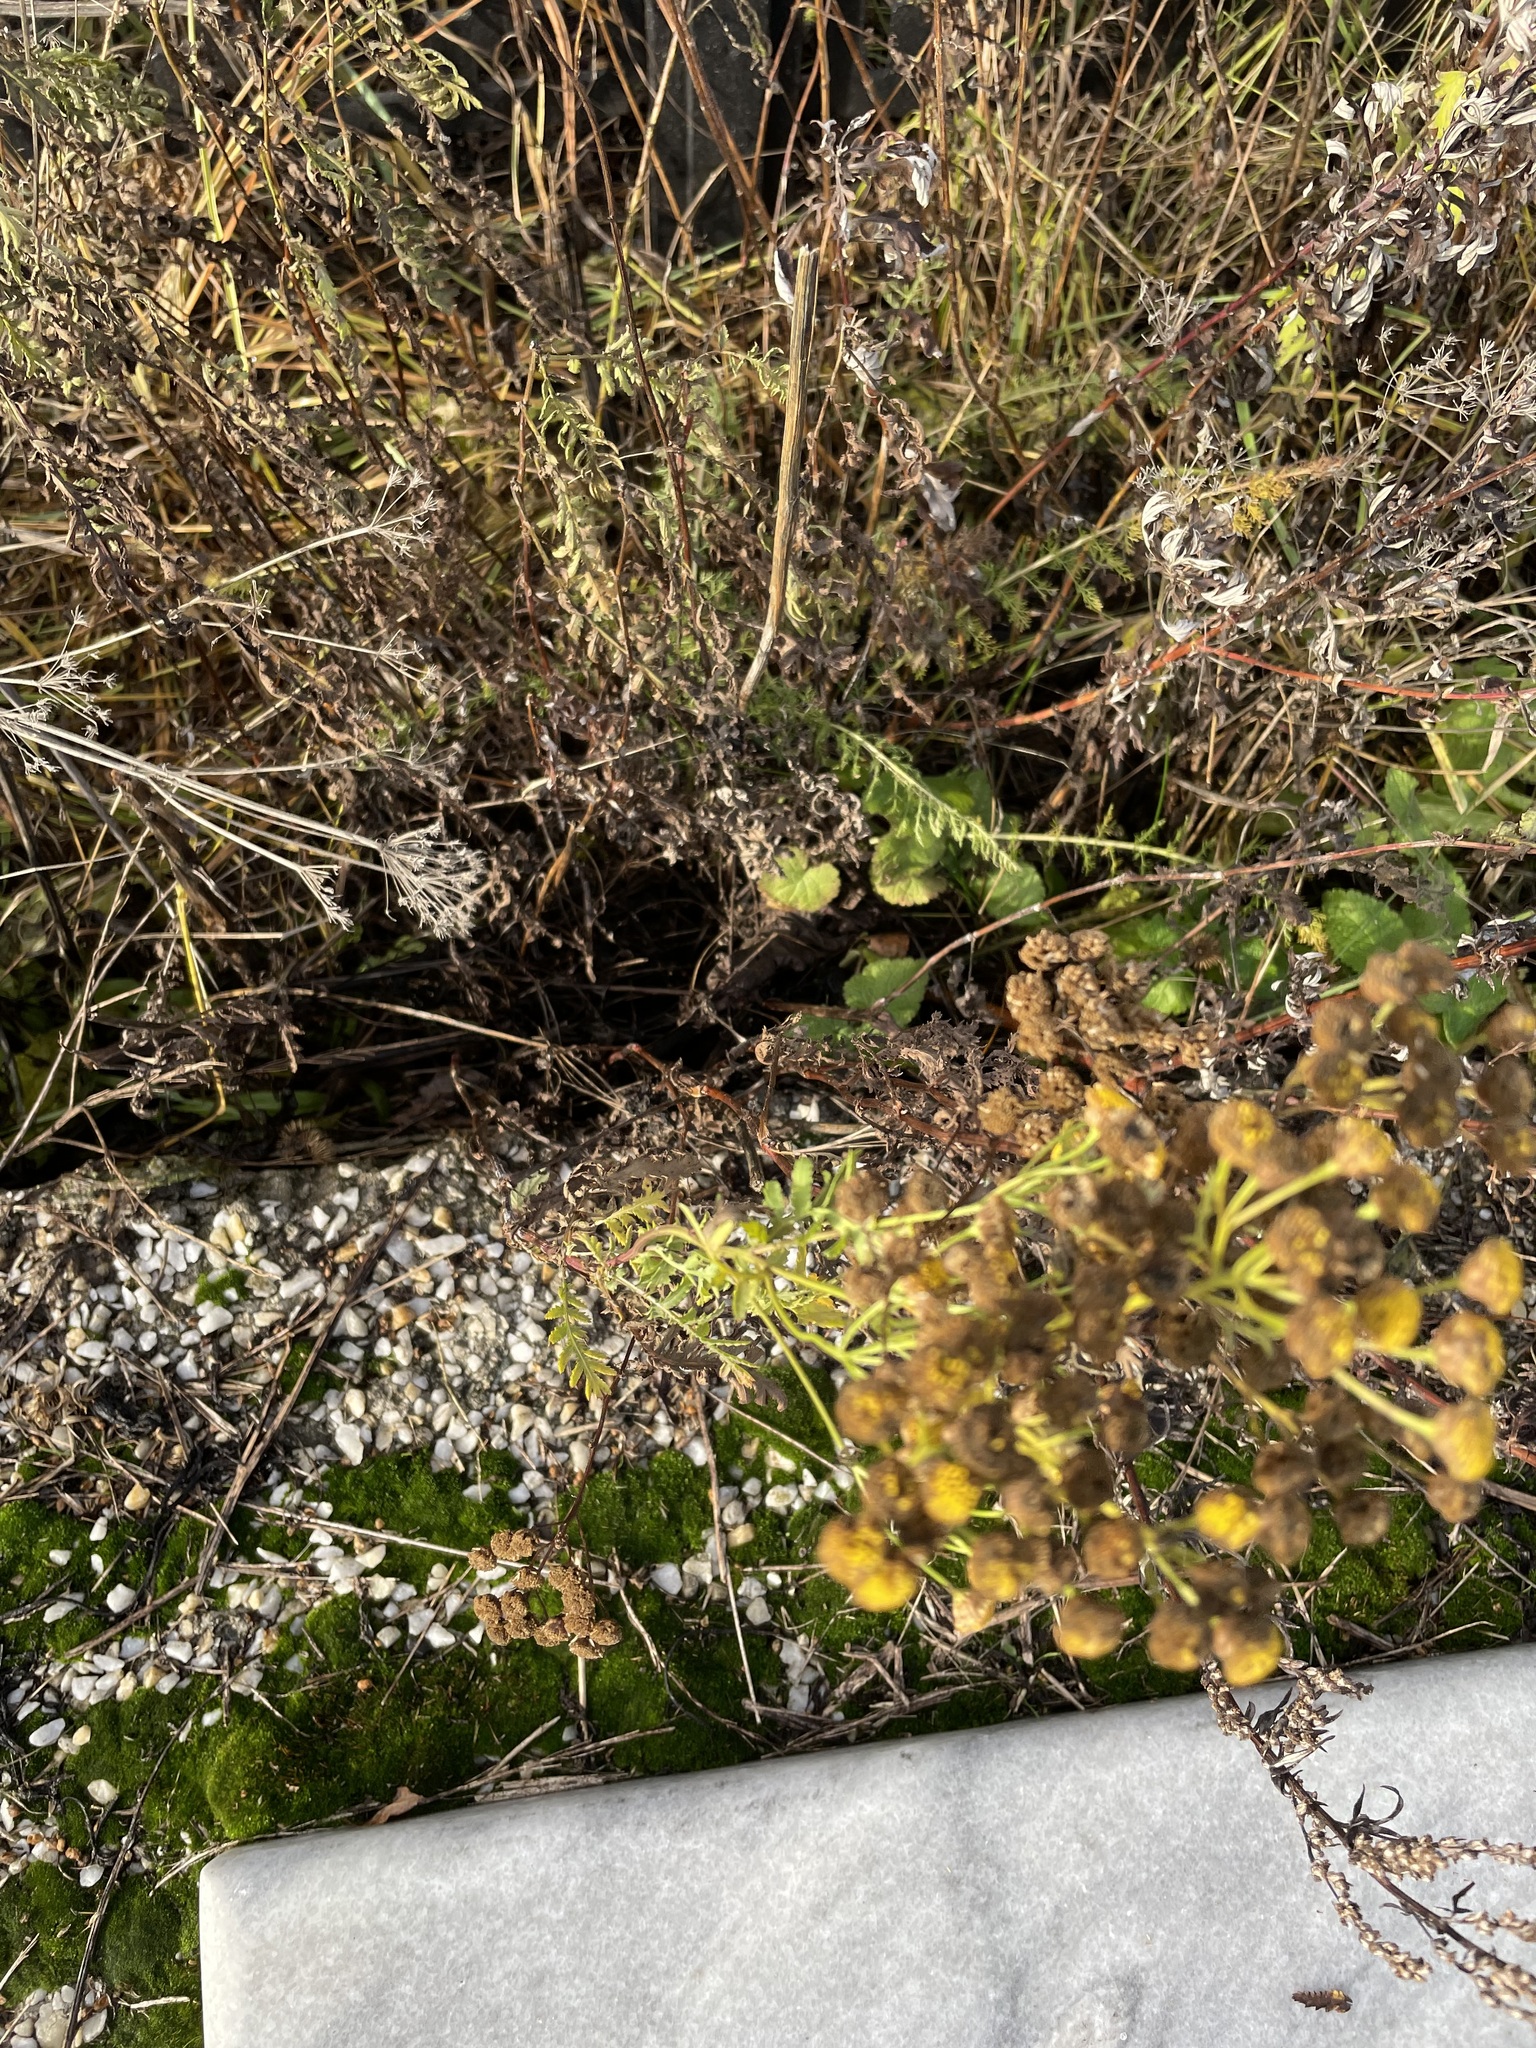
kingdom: Plantae
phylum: Tracheophyta
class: Magnoliopsida
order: Asterales
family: Asteraceae
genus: Tanacetum
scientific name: Tanacetum vulgare
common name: Common tansy
